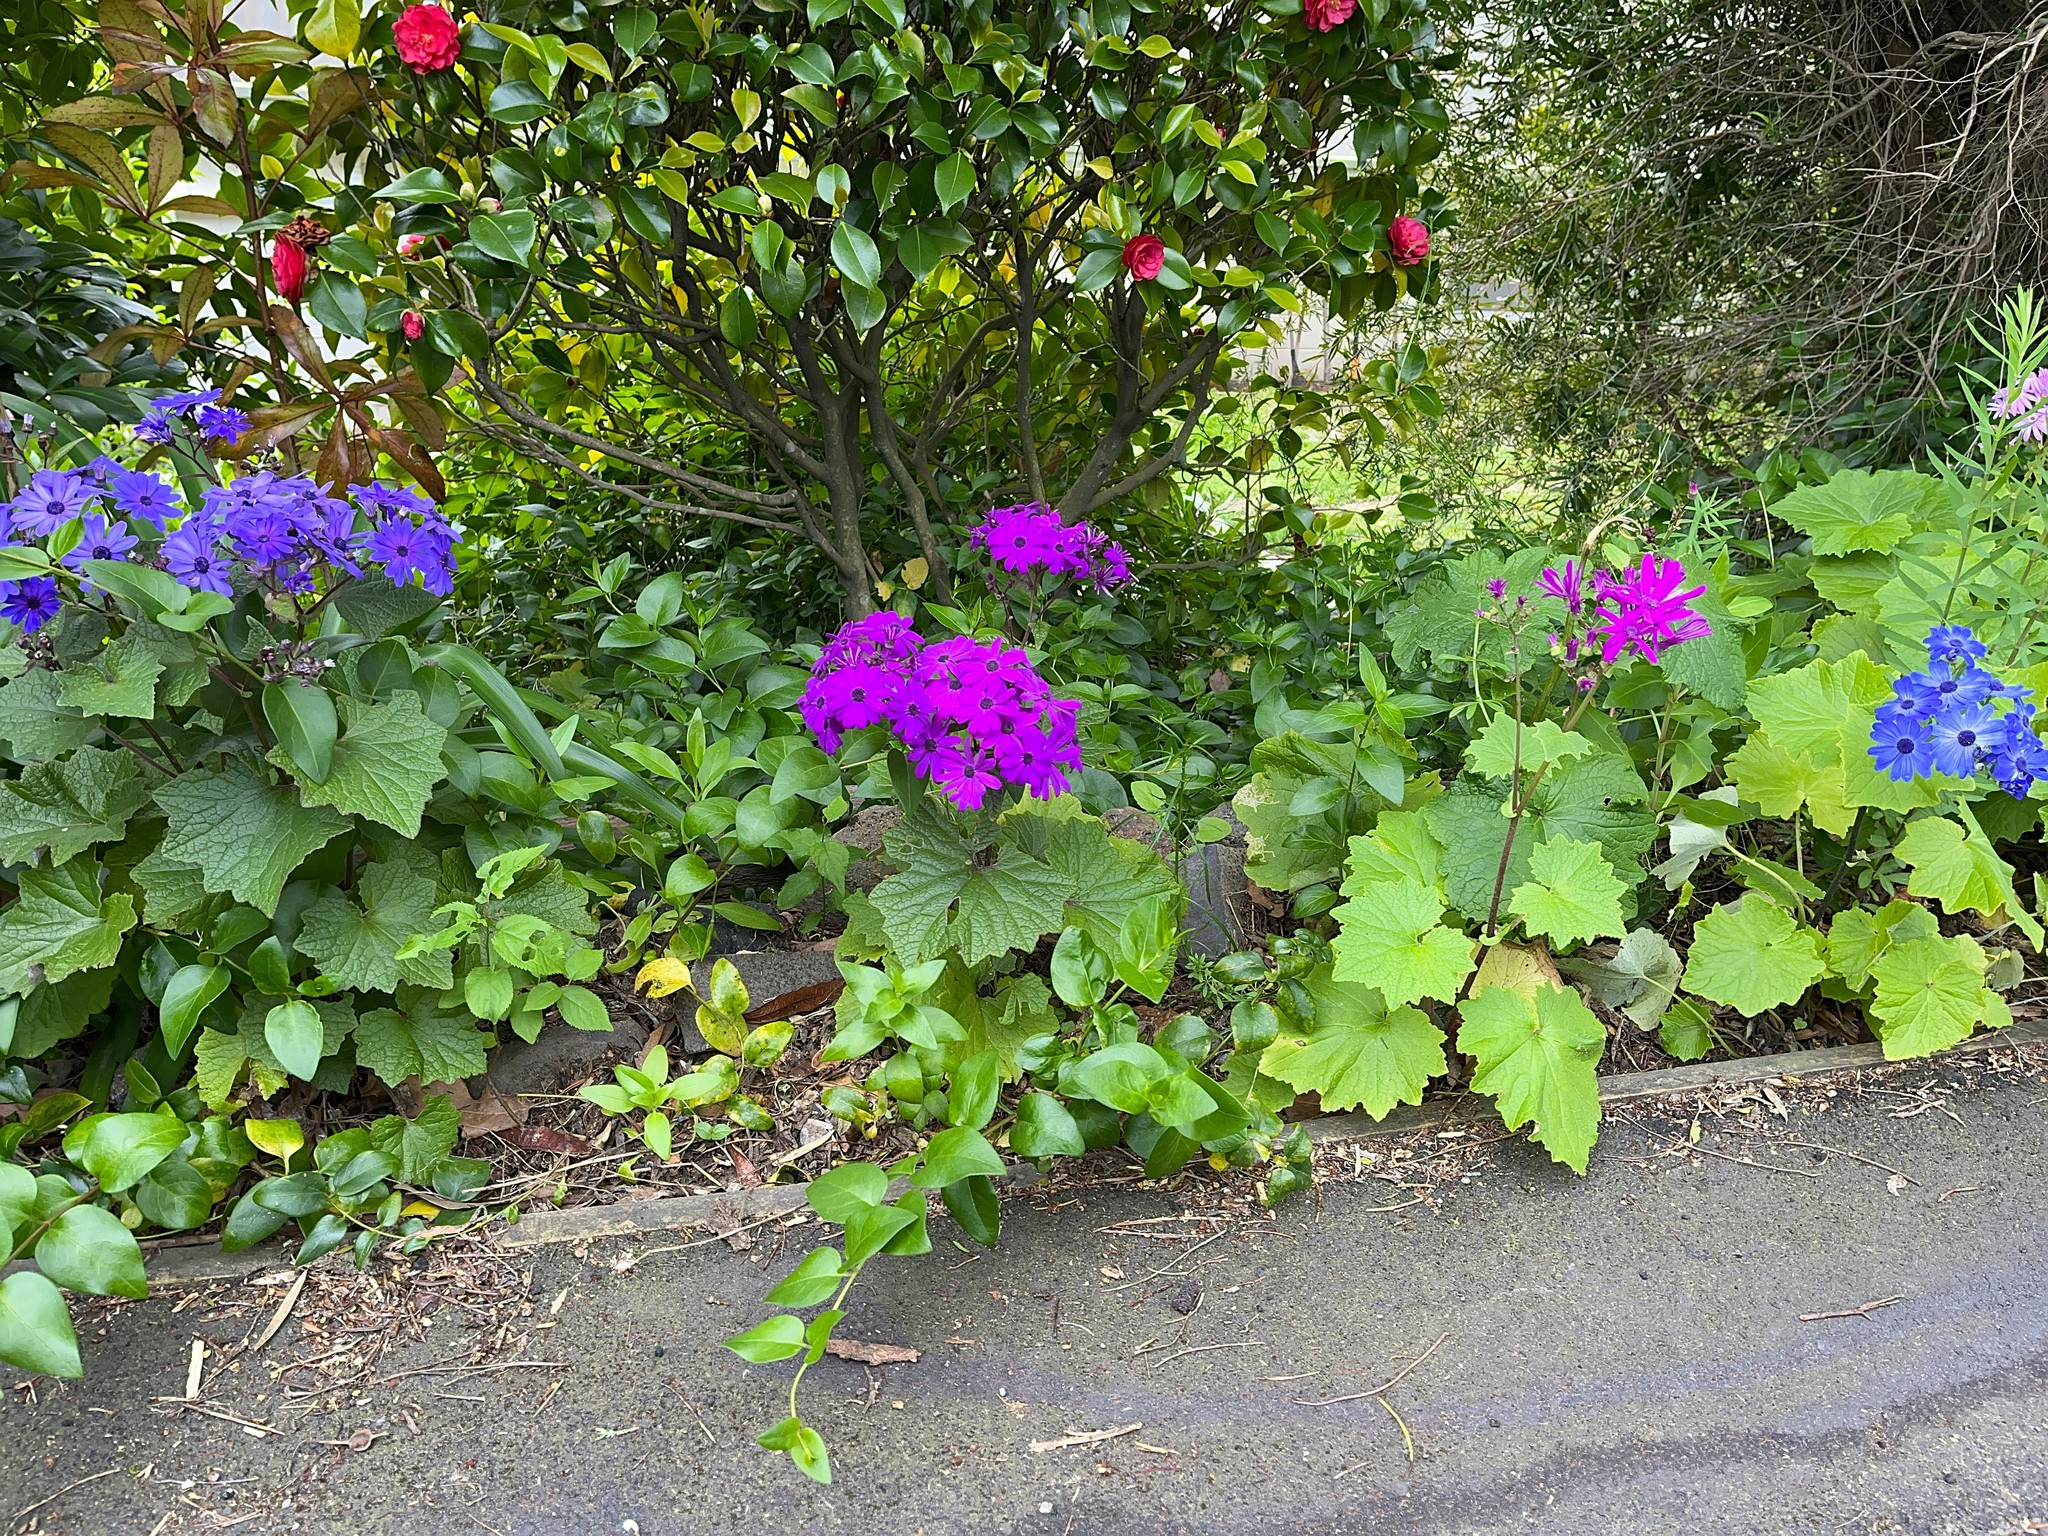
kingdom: Plantae
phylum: Tracheophyta
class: Magnoliopsida
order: Asterales
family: Asteraceae
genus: Pericallis
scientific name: Pericallis hybrida
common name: Cineraria
